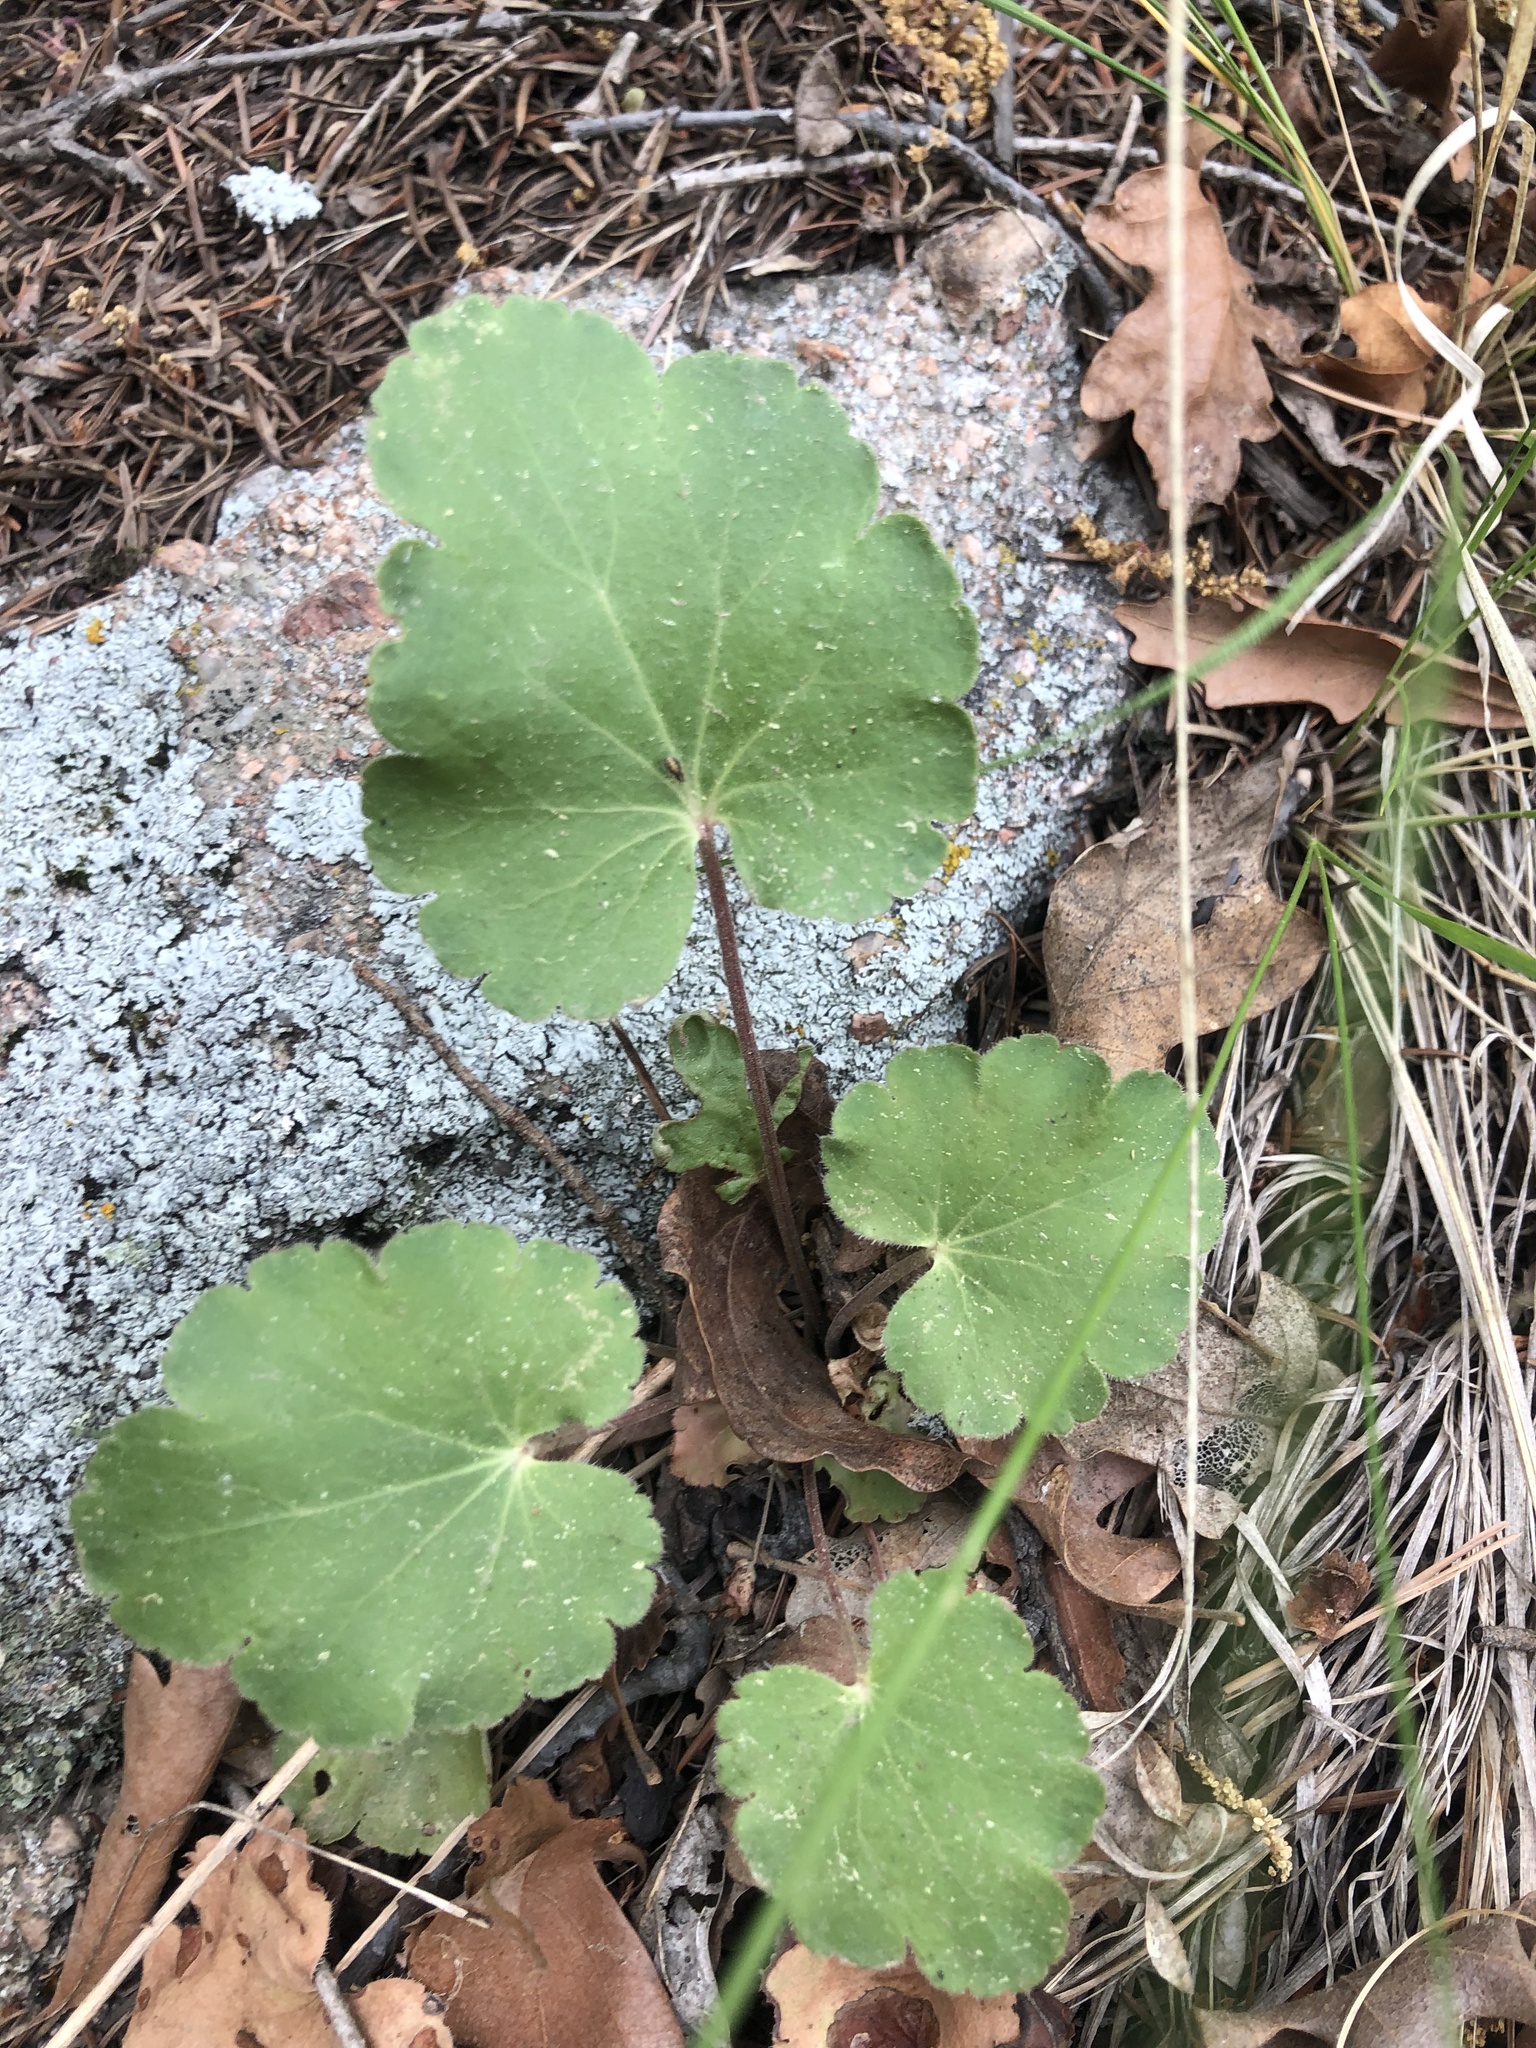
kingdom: Plantae
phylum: Tracheophyta
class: Magnoliopsida
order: Saxifragales
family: Saxifragaceae
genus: Heuchera
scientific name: Heuchera parvifolia
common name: Common alumroot
